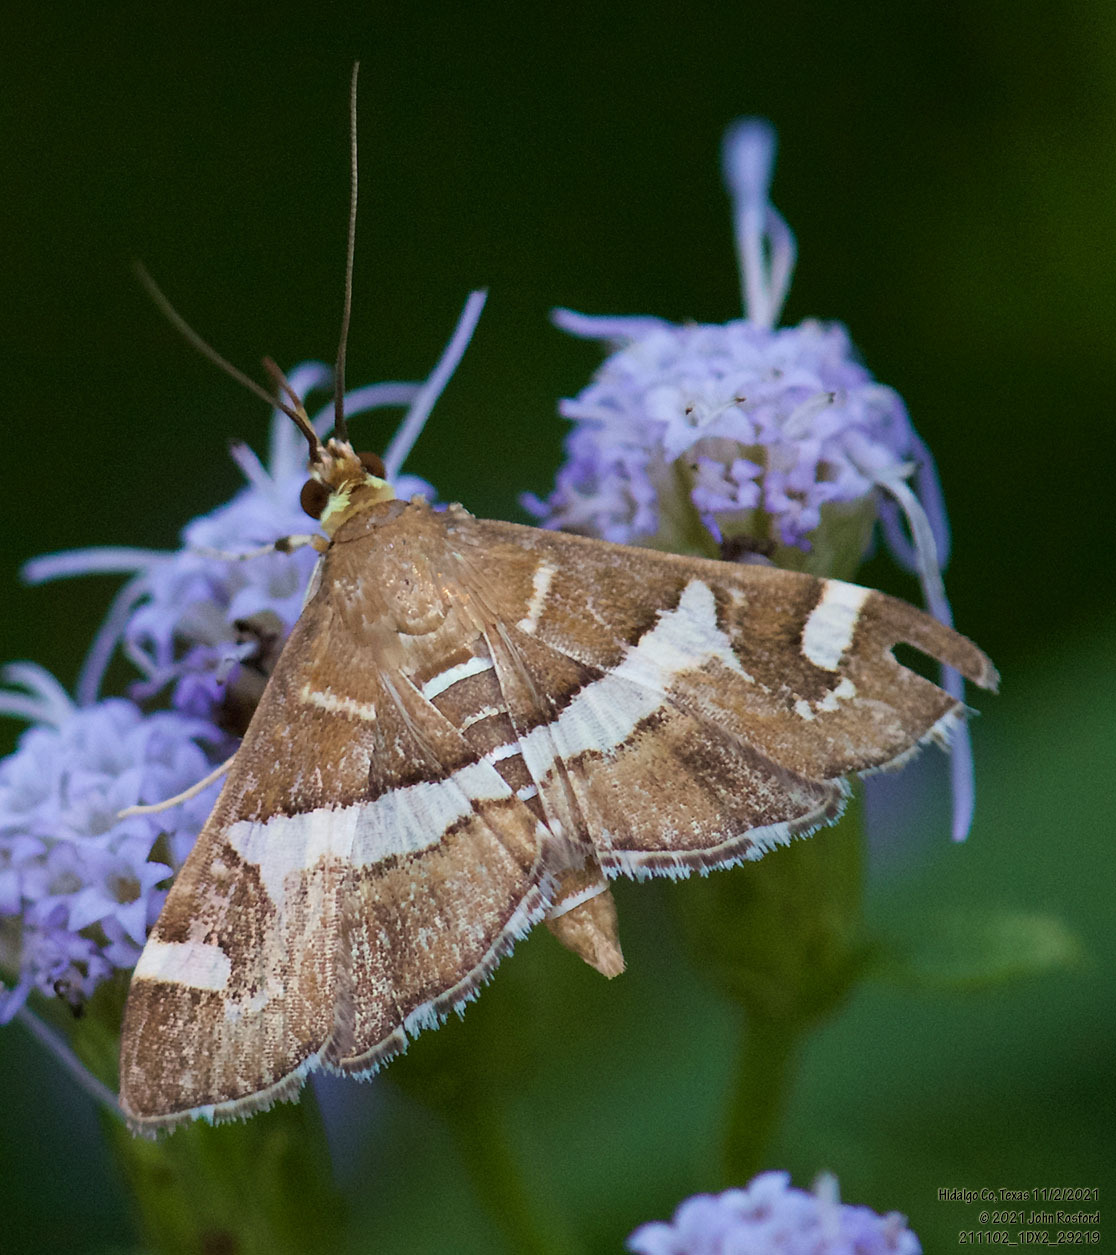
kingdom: Animalia
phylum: Arthropoda
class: Insecta
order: Lepidoptera
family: Crambidae
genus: Spoladea
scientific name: Spoladea recurvalis
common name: Beet webworm moth
